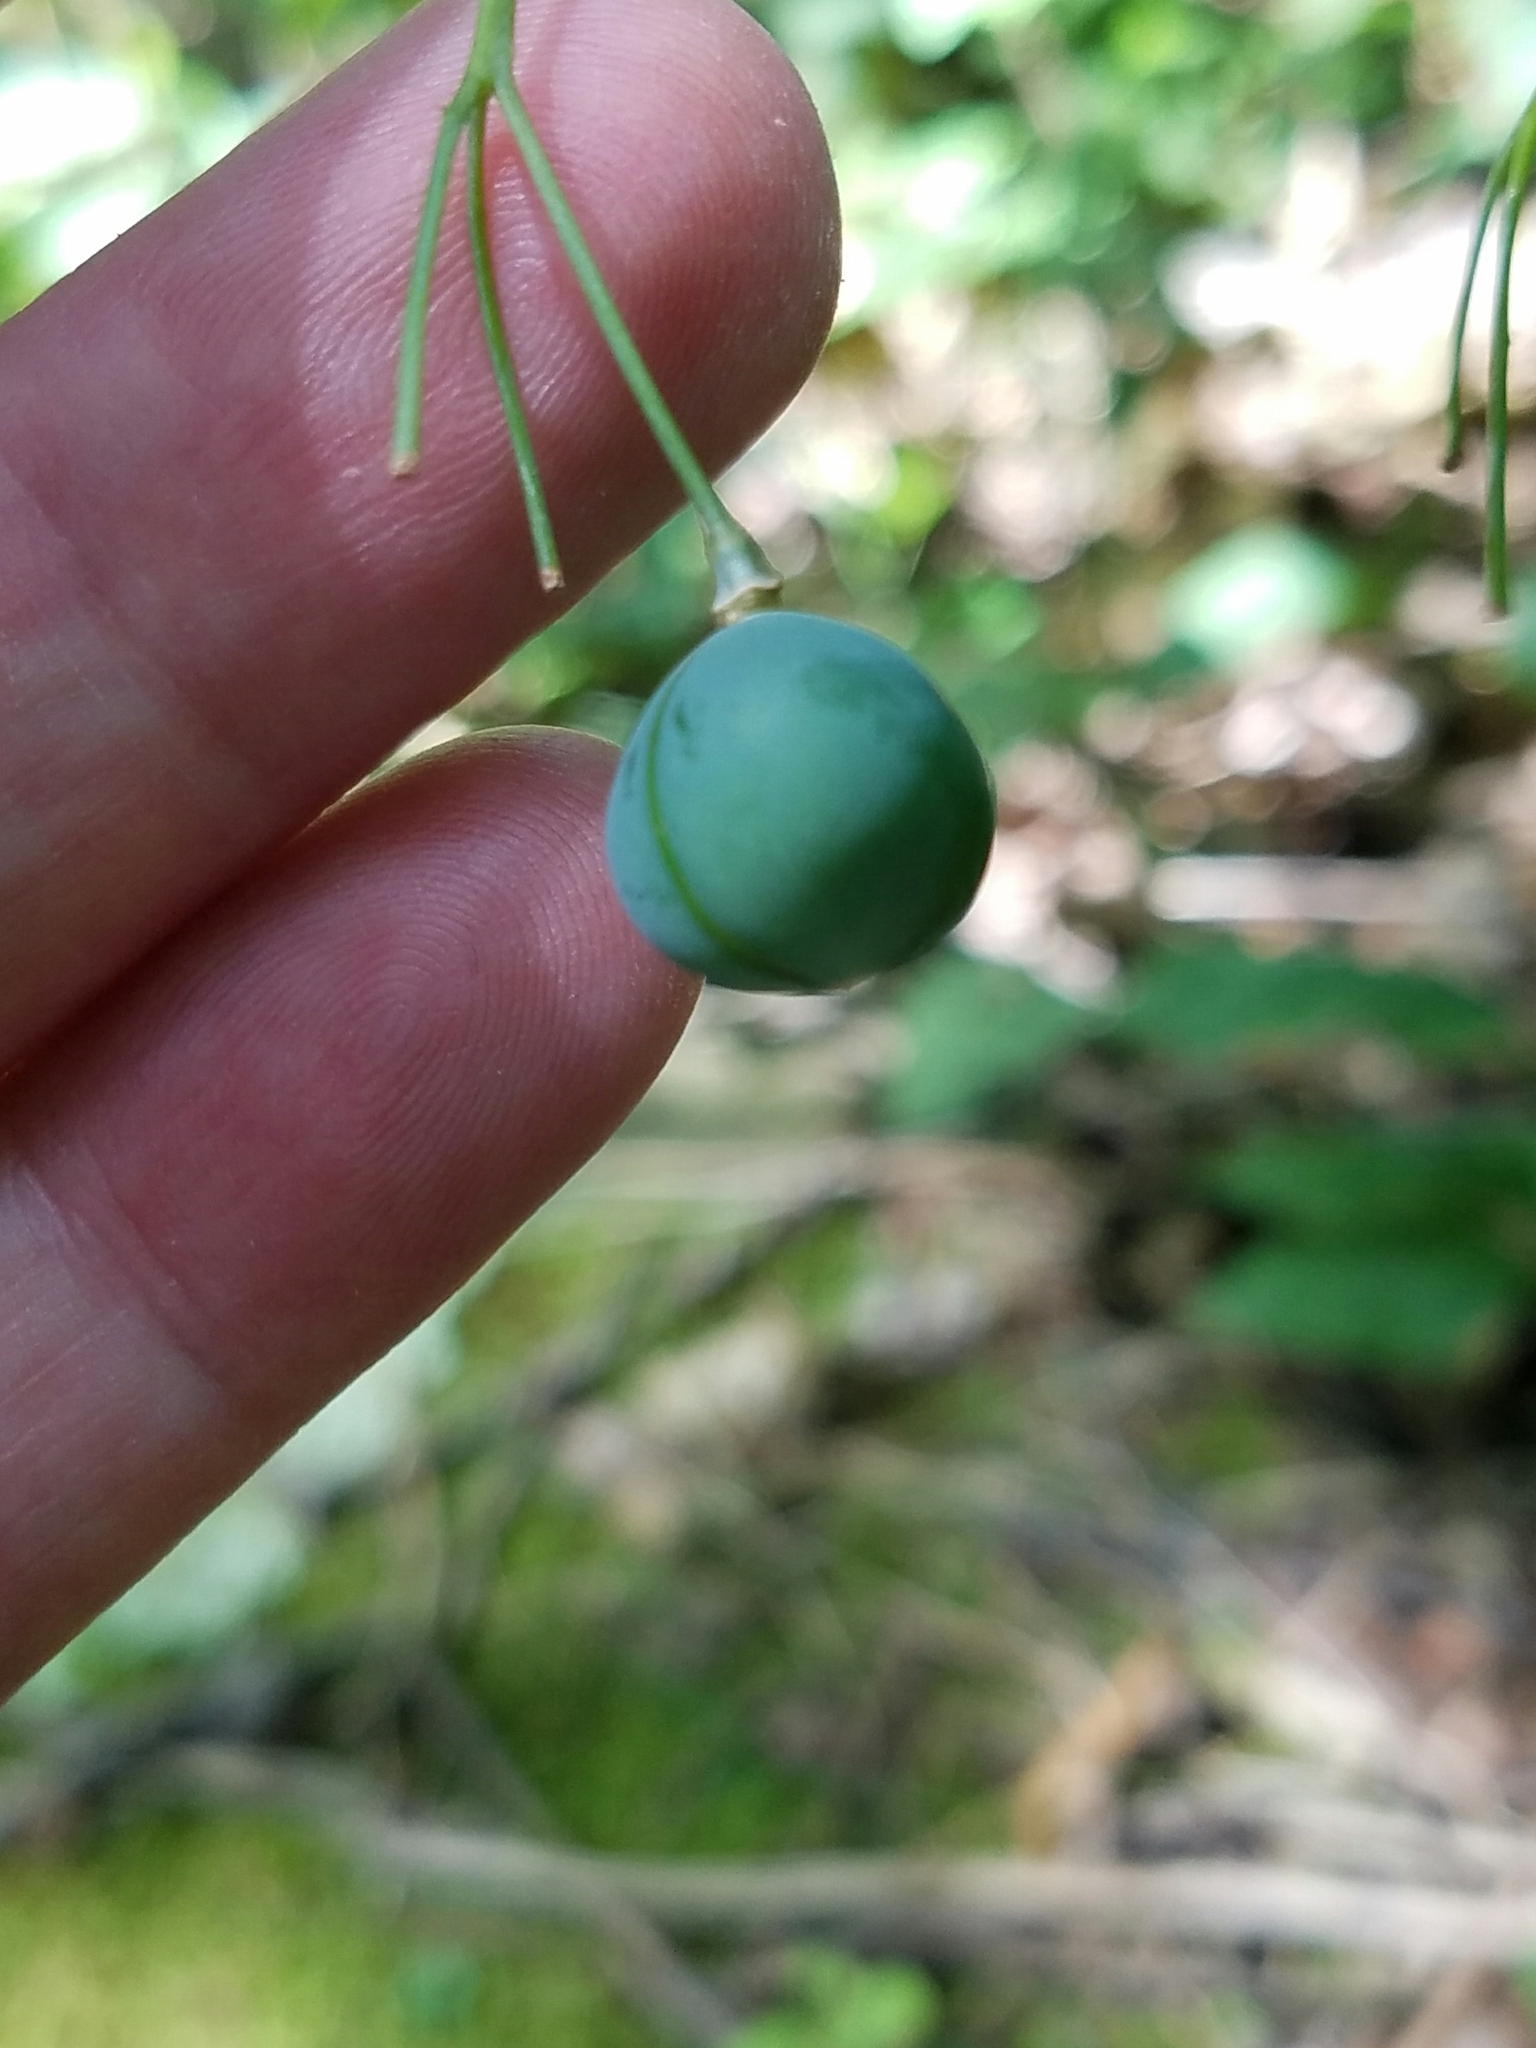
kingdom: Plantae
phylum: Tracheophyta
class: Liliopsida
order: Asparagales
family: Asparagaceae
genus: Polygonatum
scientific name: Polygonatum biflorum
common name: American solomon's-seal
